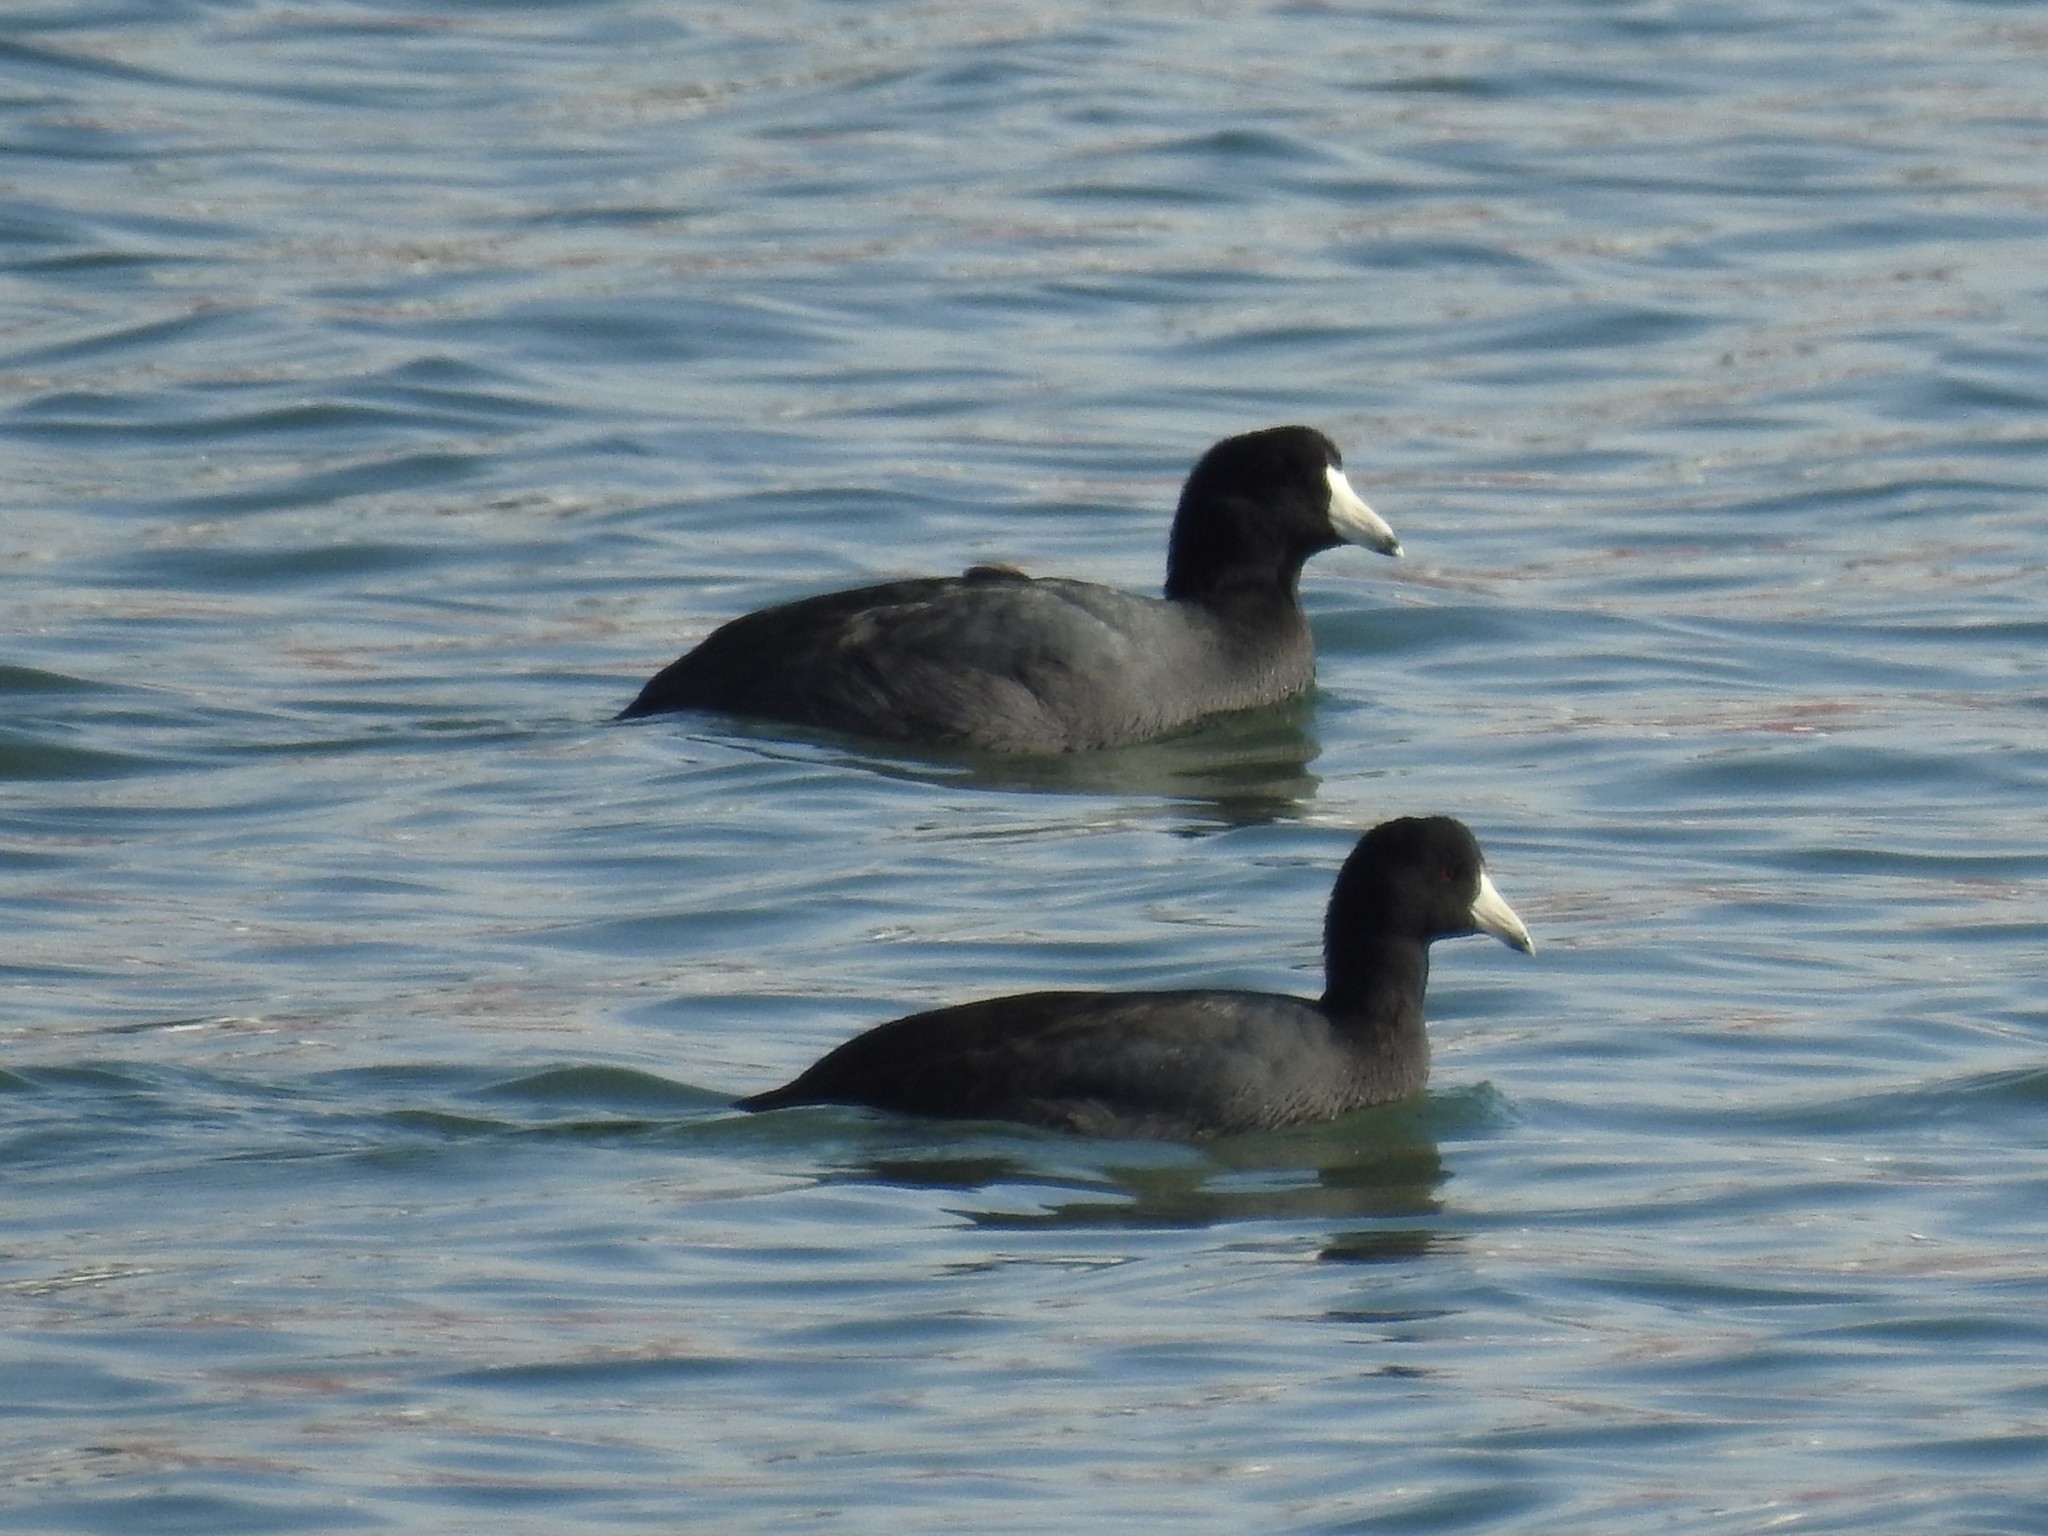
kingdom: Animalia
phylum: Chordata
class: Aves
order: Gruiformes
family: Rallidae
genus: Fulica
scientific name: Fulica americana
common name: American coot
